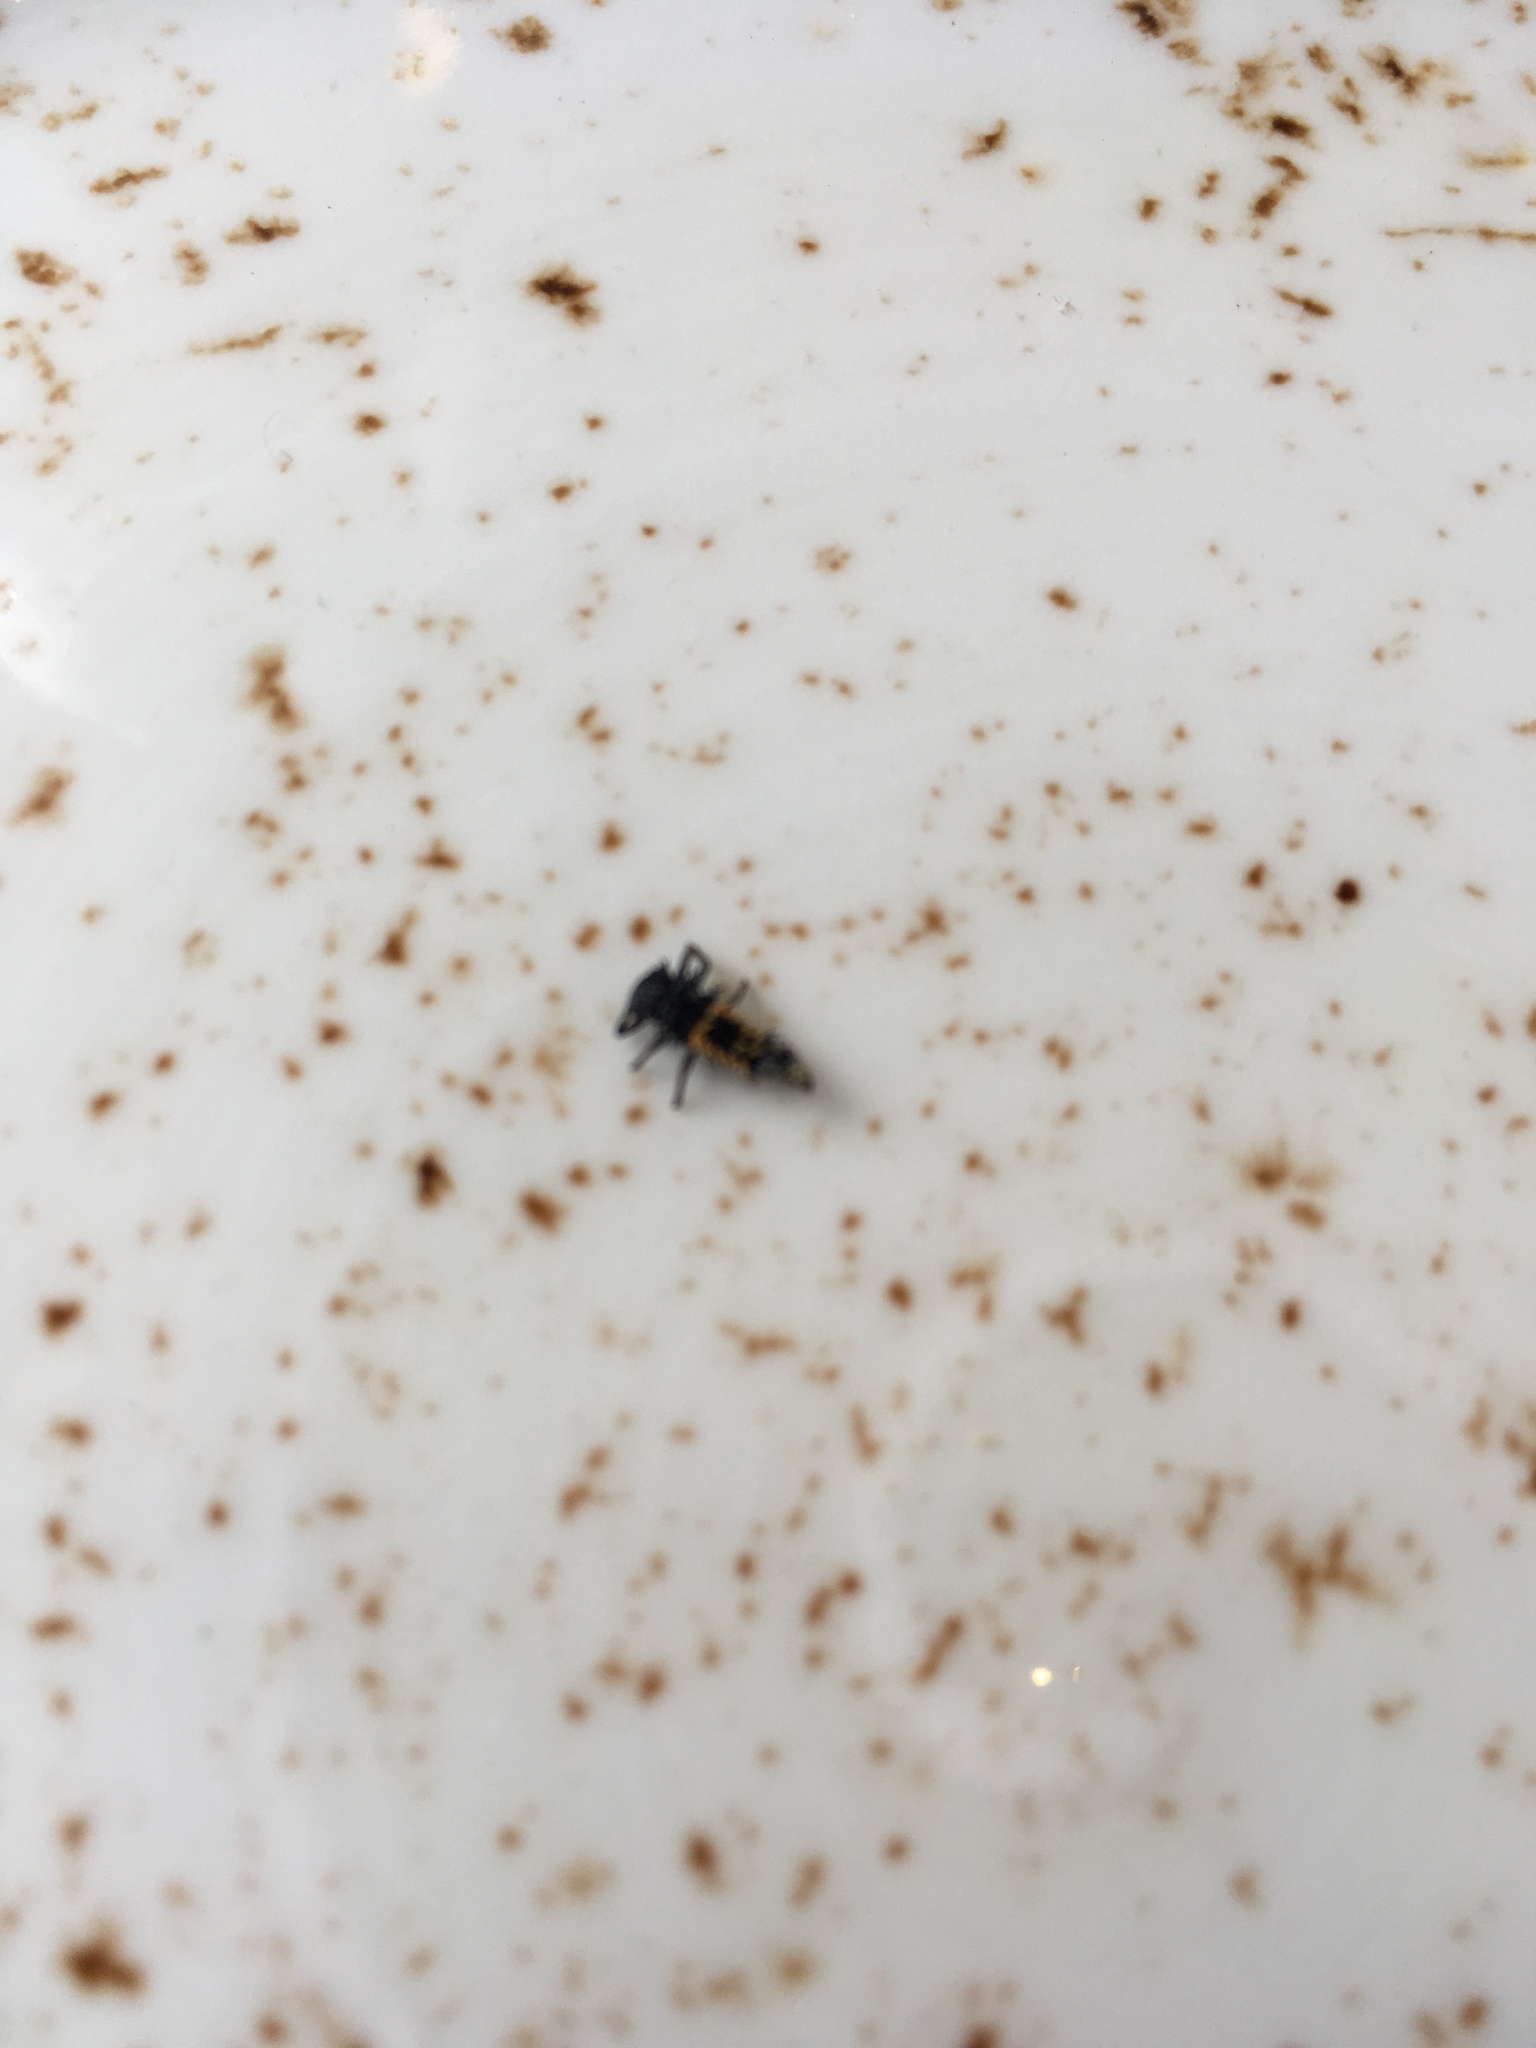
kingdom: Animalia
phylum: Arthropoda
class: Insecta
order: Coleoptera
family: Coccinellidae
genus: Harmonia
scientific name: Harmonia axyridis
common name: Harlequin ladybird
